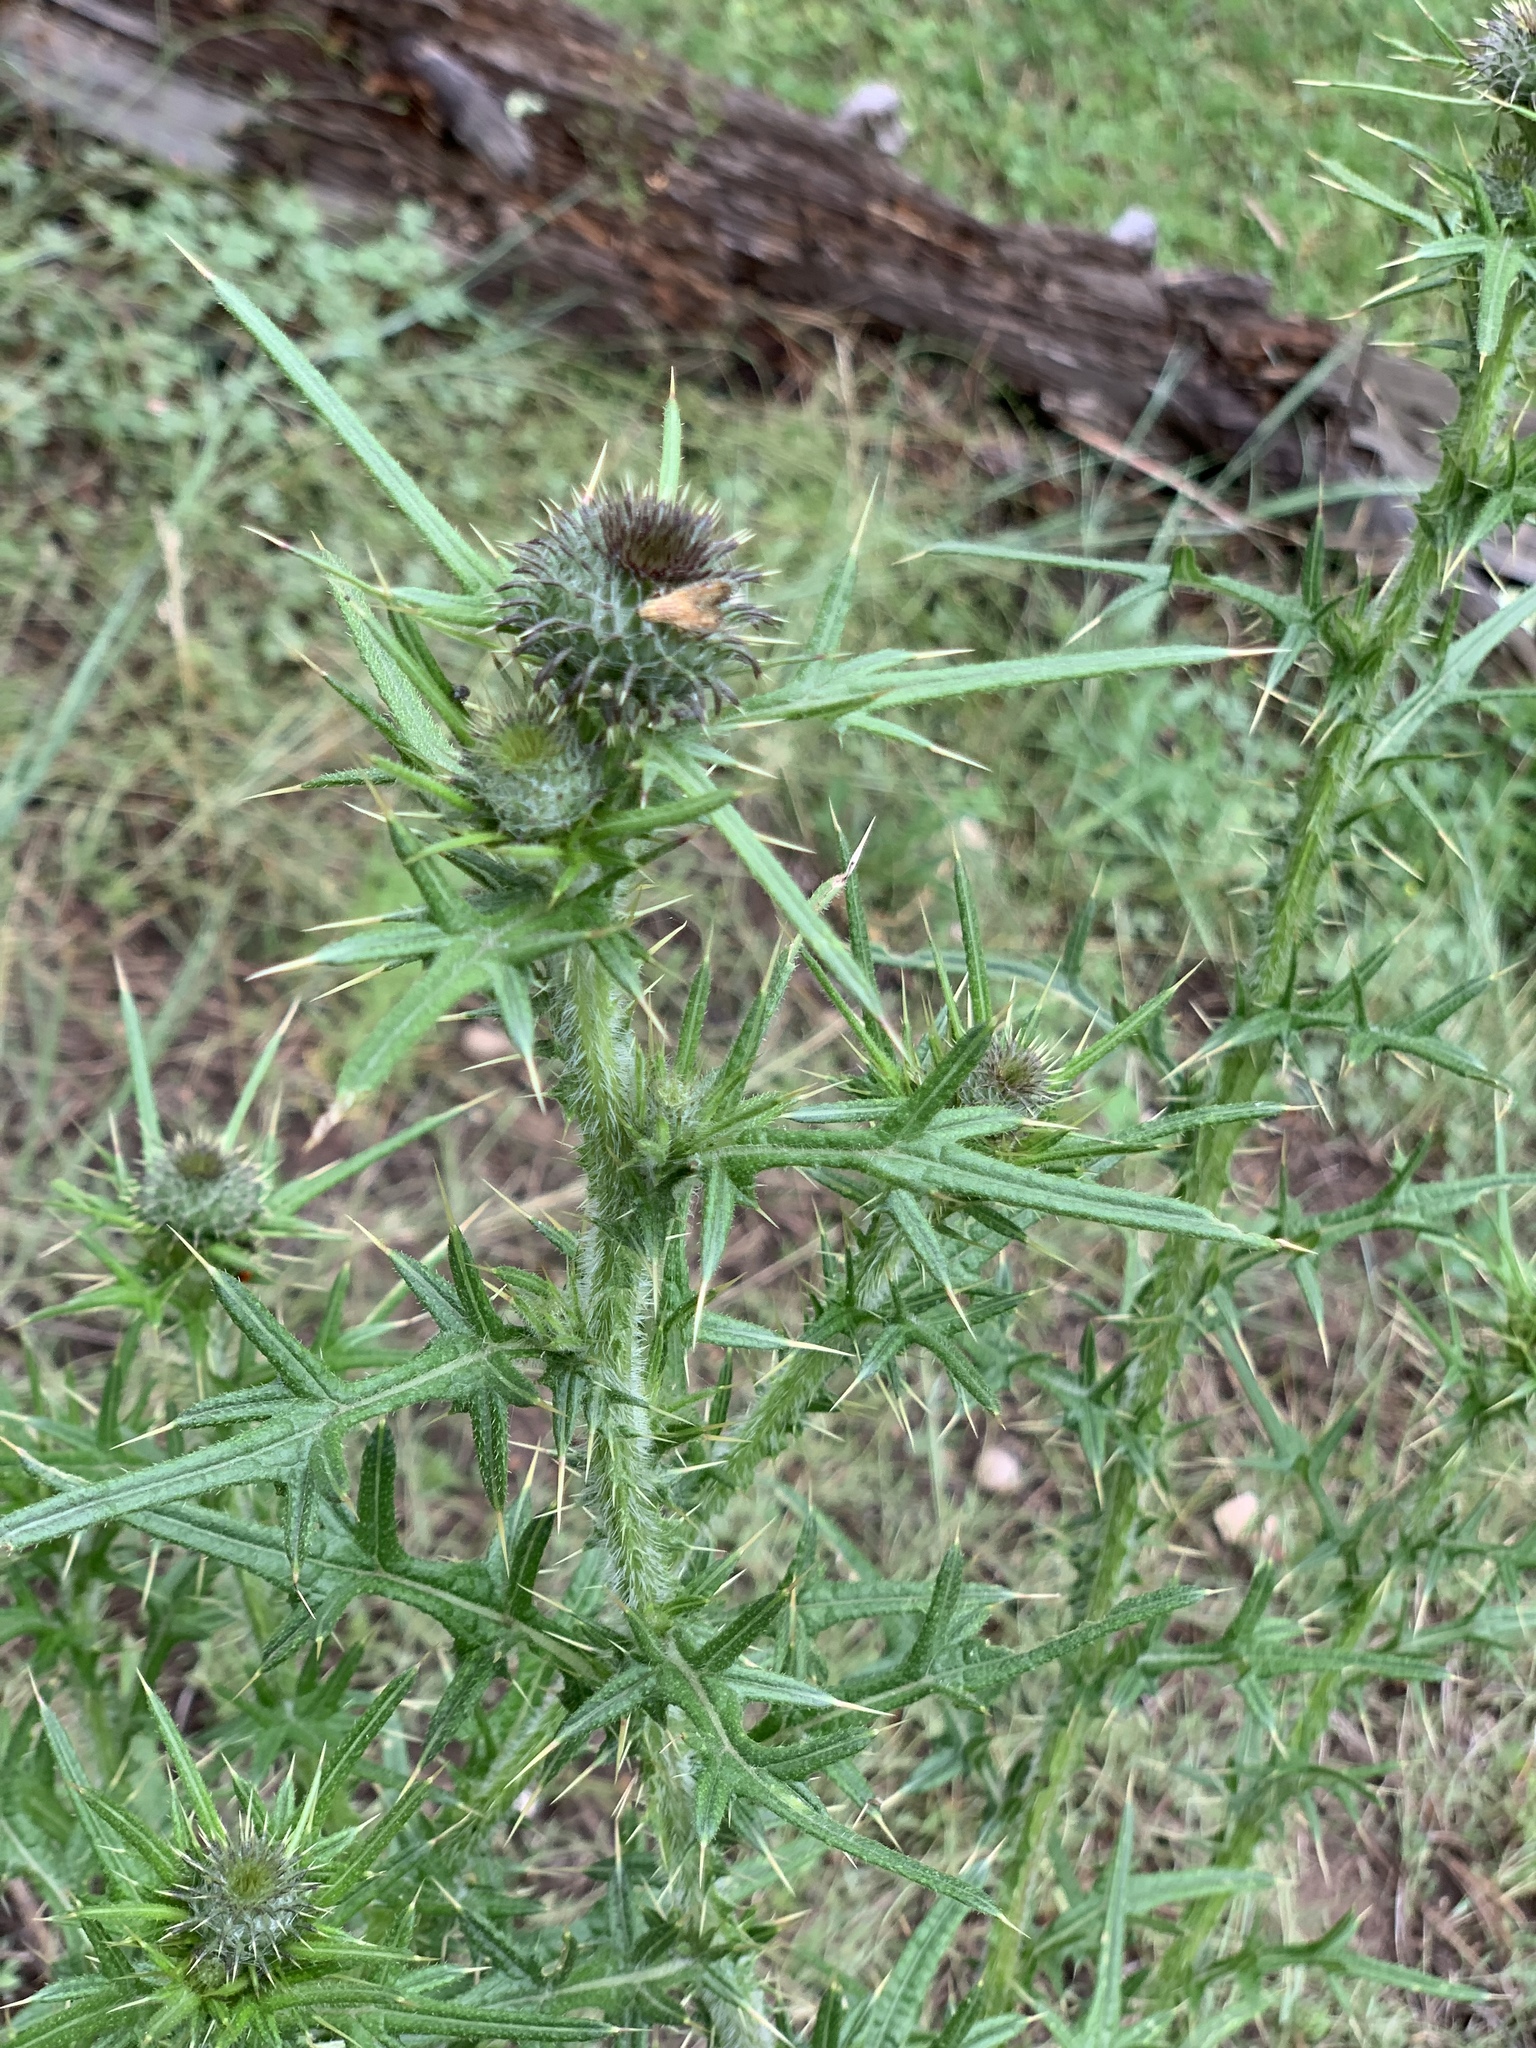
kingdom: Plantae
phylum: Tracheophyta
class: Magnoliopsida
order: Asterales
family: Asteraceae
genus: Cirsium
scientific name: Cirsium vulgare
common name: Bull thistle
